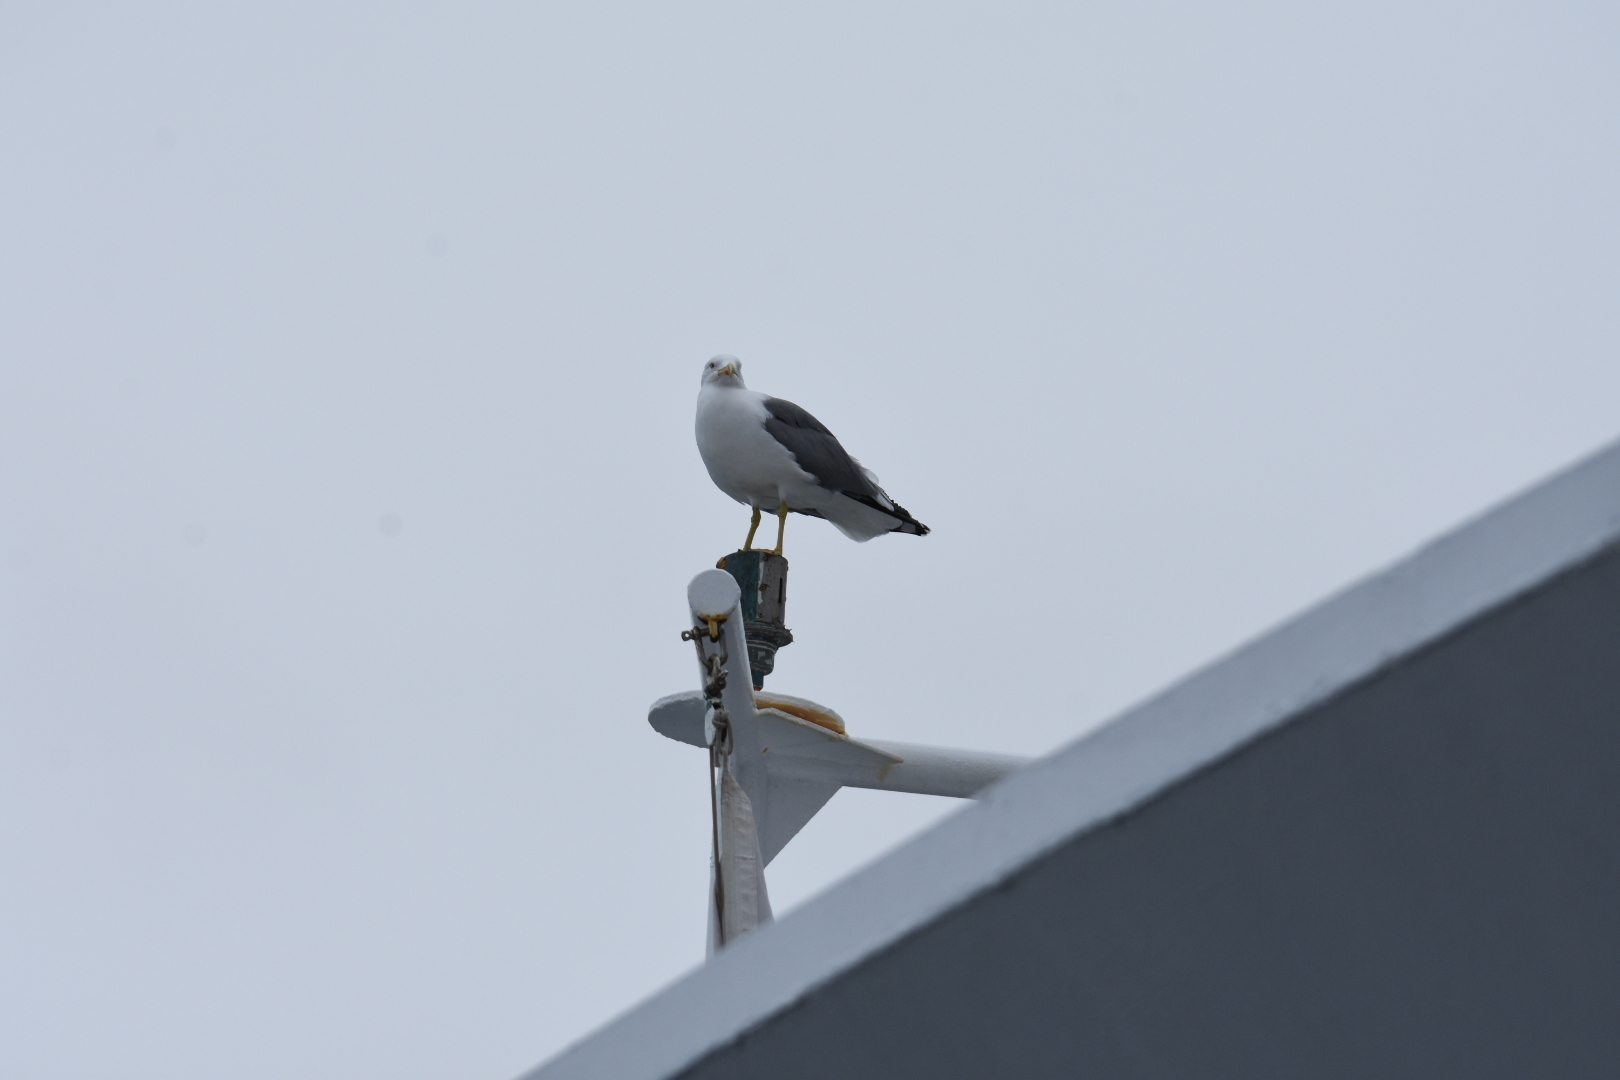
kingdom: Animalia
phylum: Chordata
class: Aves
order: Charadriiformes
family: Laridae
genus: Larus
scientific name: Larus michahellis
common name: Yellow-legged gull
